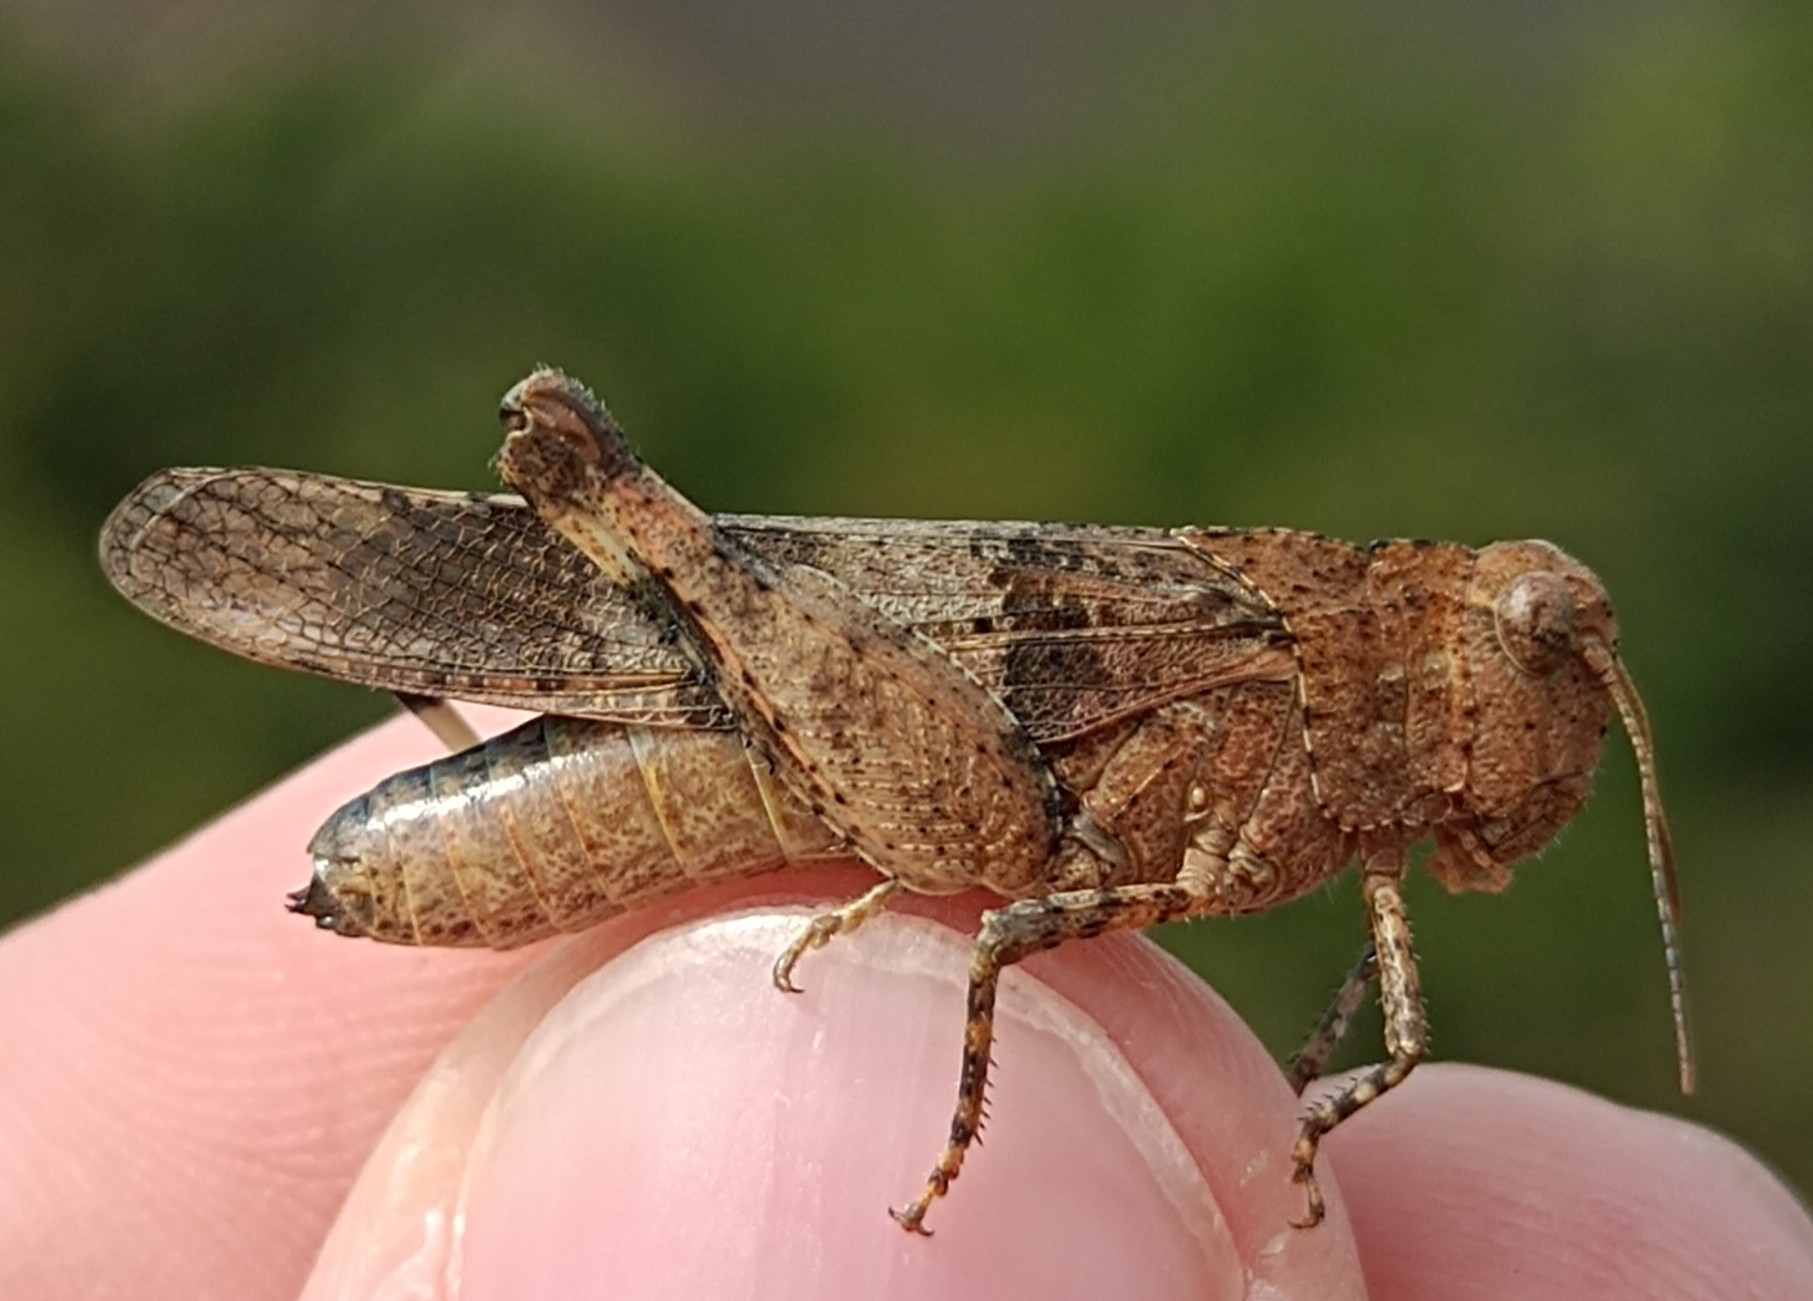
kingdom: Animalia
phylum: Arthropoda
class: Insecta
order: Orthoptera
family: Acrididae
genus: Oedipoda
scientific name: Oedipoda caerulescens
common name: Blue-winged grasshopper
